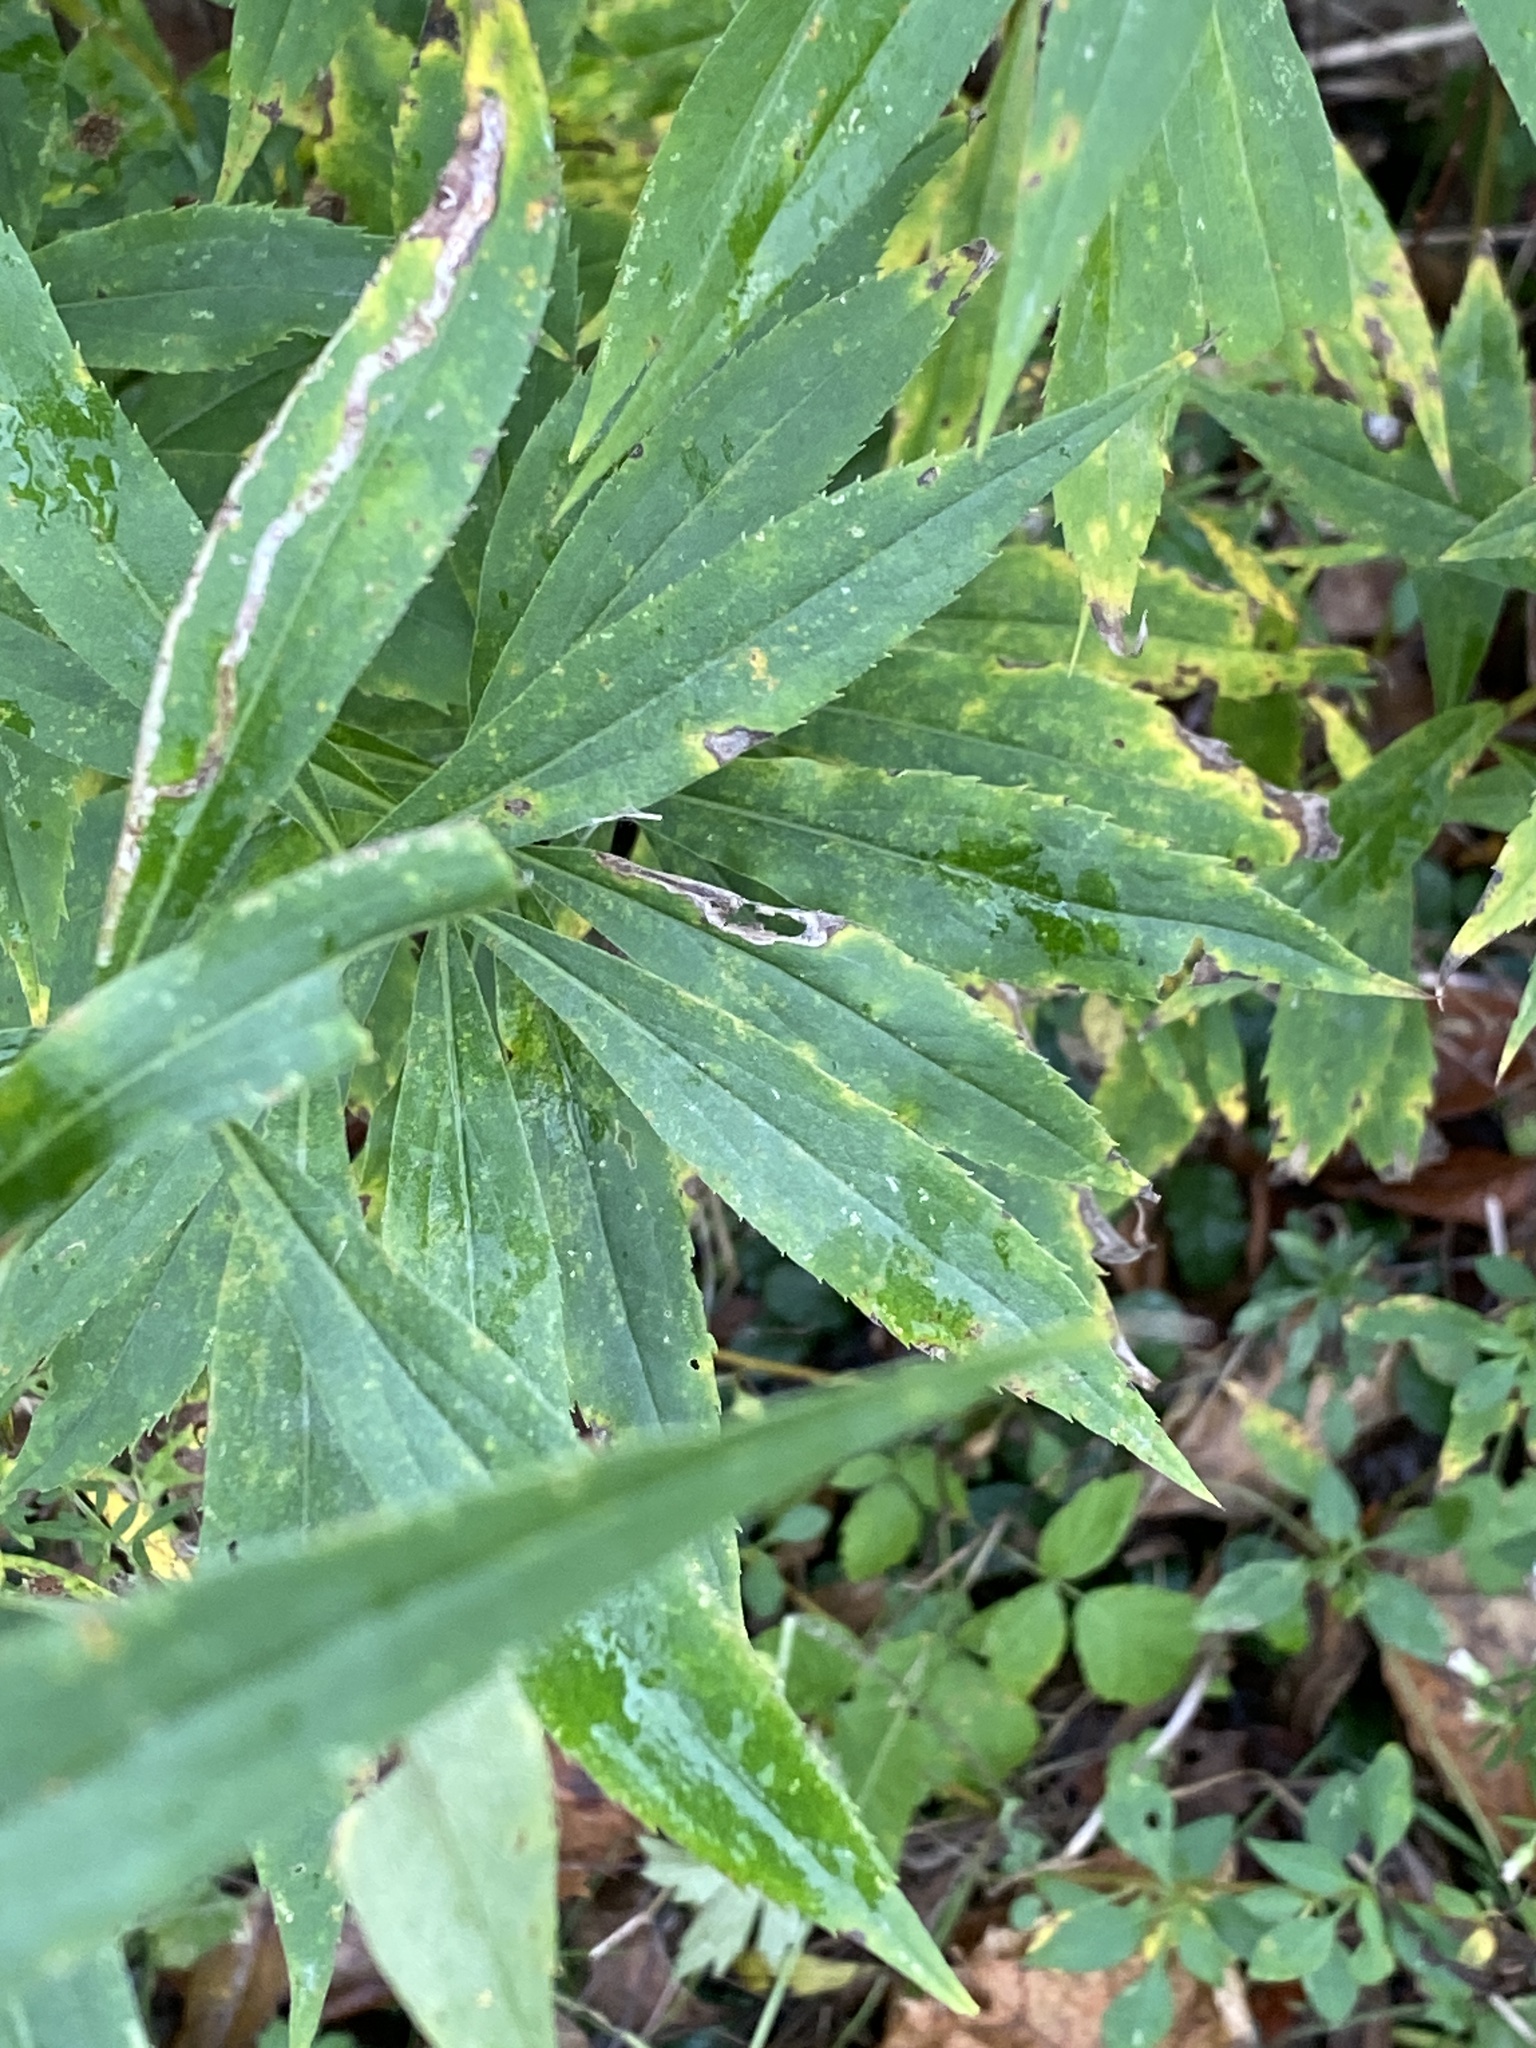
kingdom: Plantae
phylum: Tracheophyta
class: Magnoliopsida
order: Asterales
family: Asteraceae
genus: Solidago
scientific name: Solidago altissima
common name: Late goldenrod
